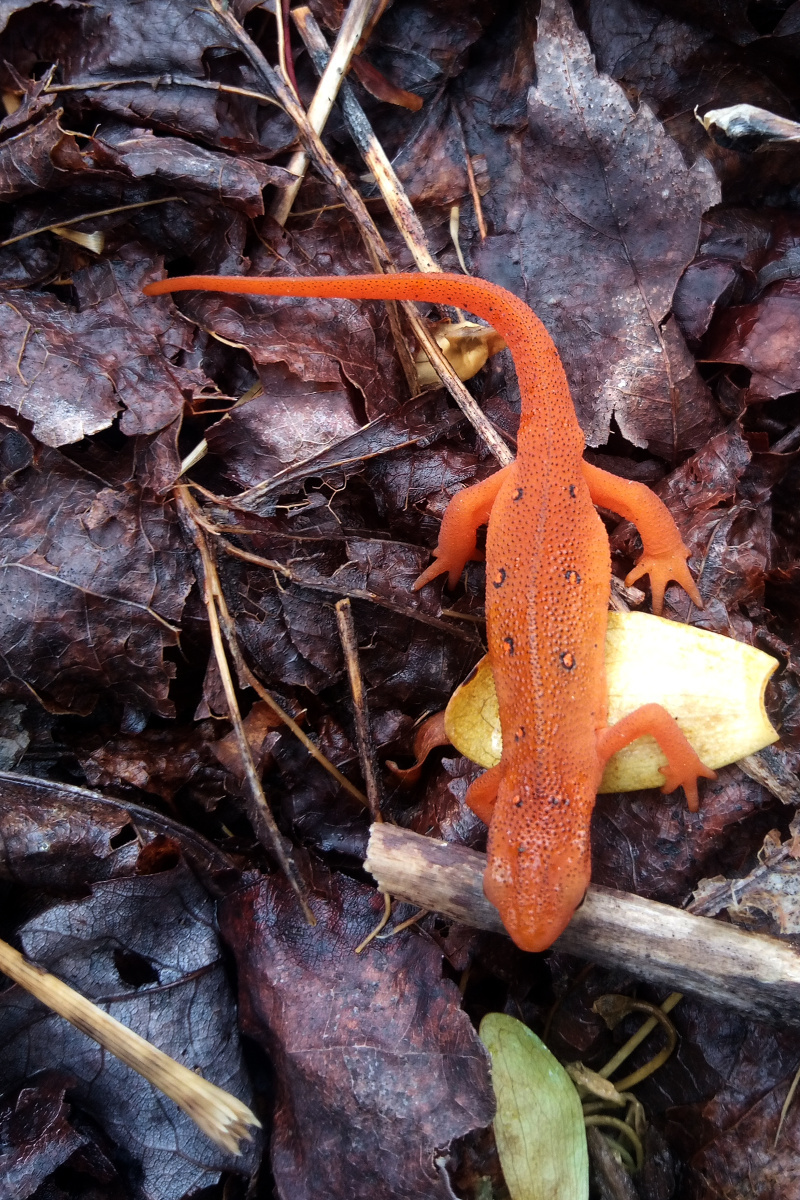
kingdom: Animalia
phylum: Chordata
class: Amphibia
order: Caudata
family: Salamandridae
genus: Notophthalmus
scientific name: Notophthalmus viridescens
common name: Eastern newt
